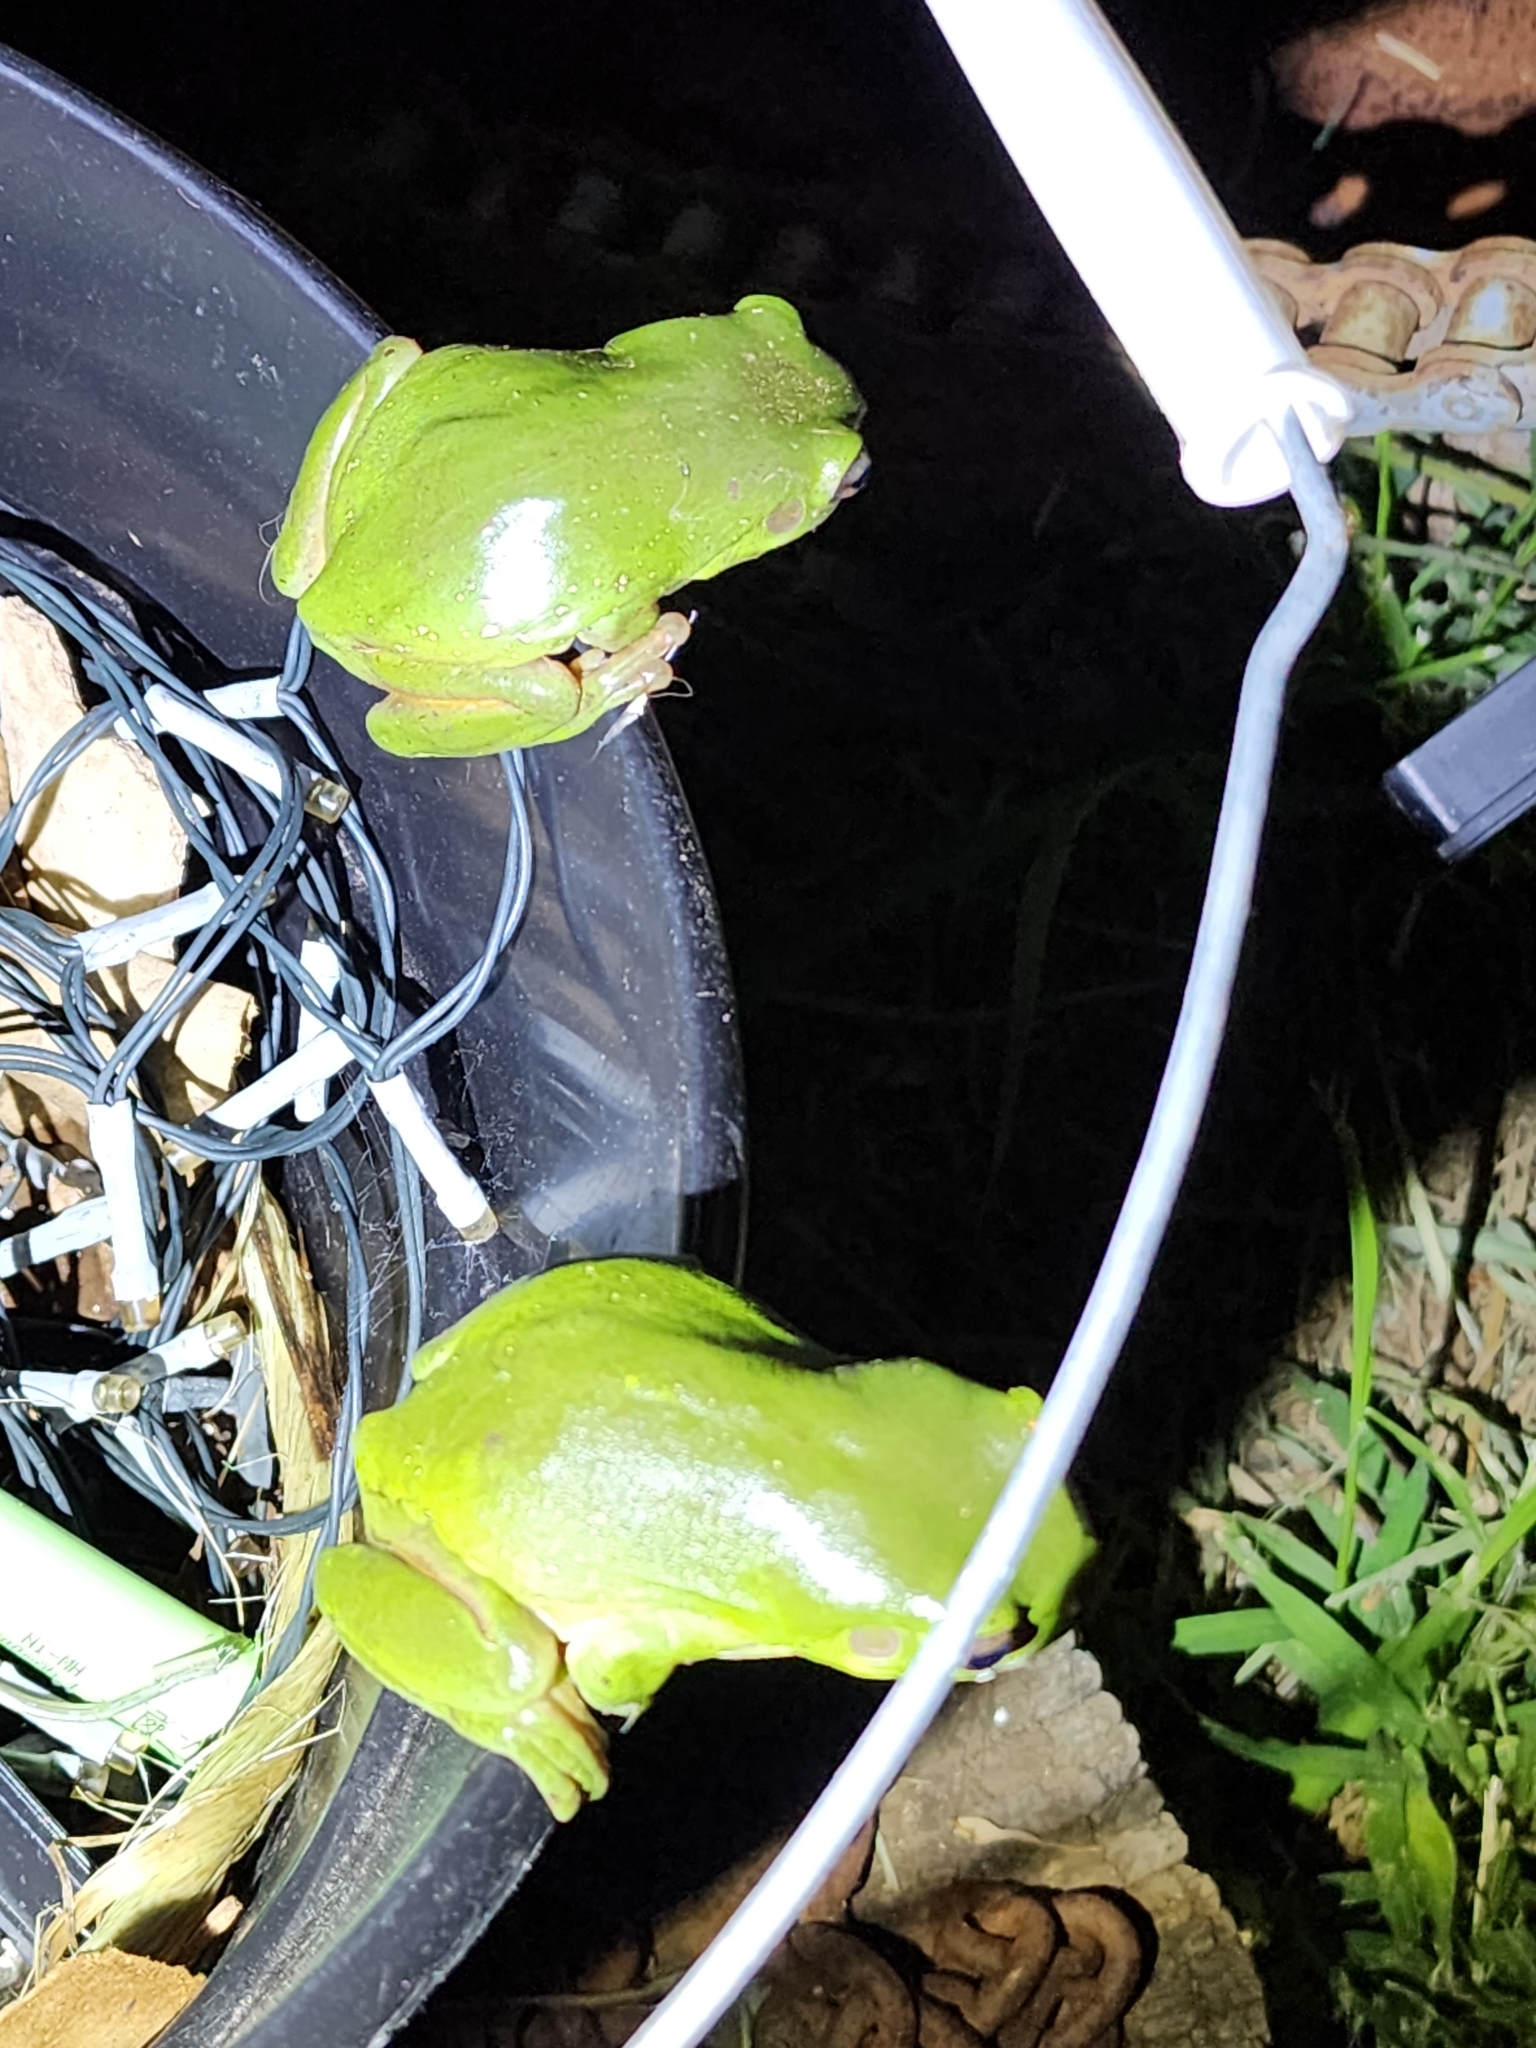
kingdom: Animalia
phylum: Chordata
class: Amphibia
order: Anura
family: Pelodryadidae
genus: Ranoidea
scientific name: Ranoidea caerulea
